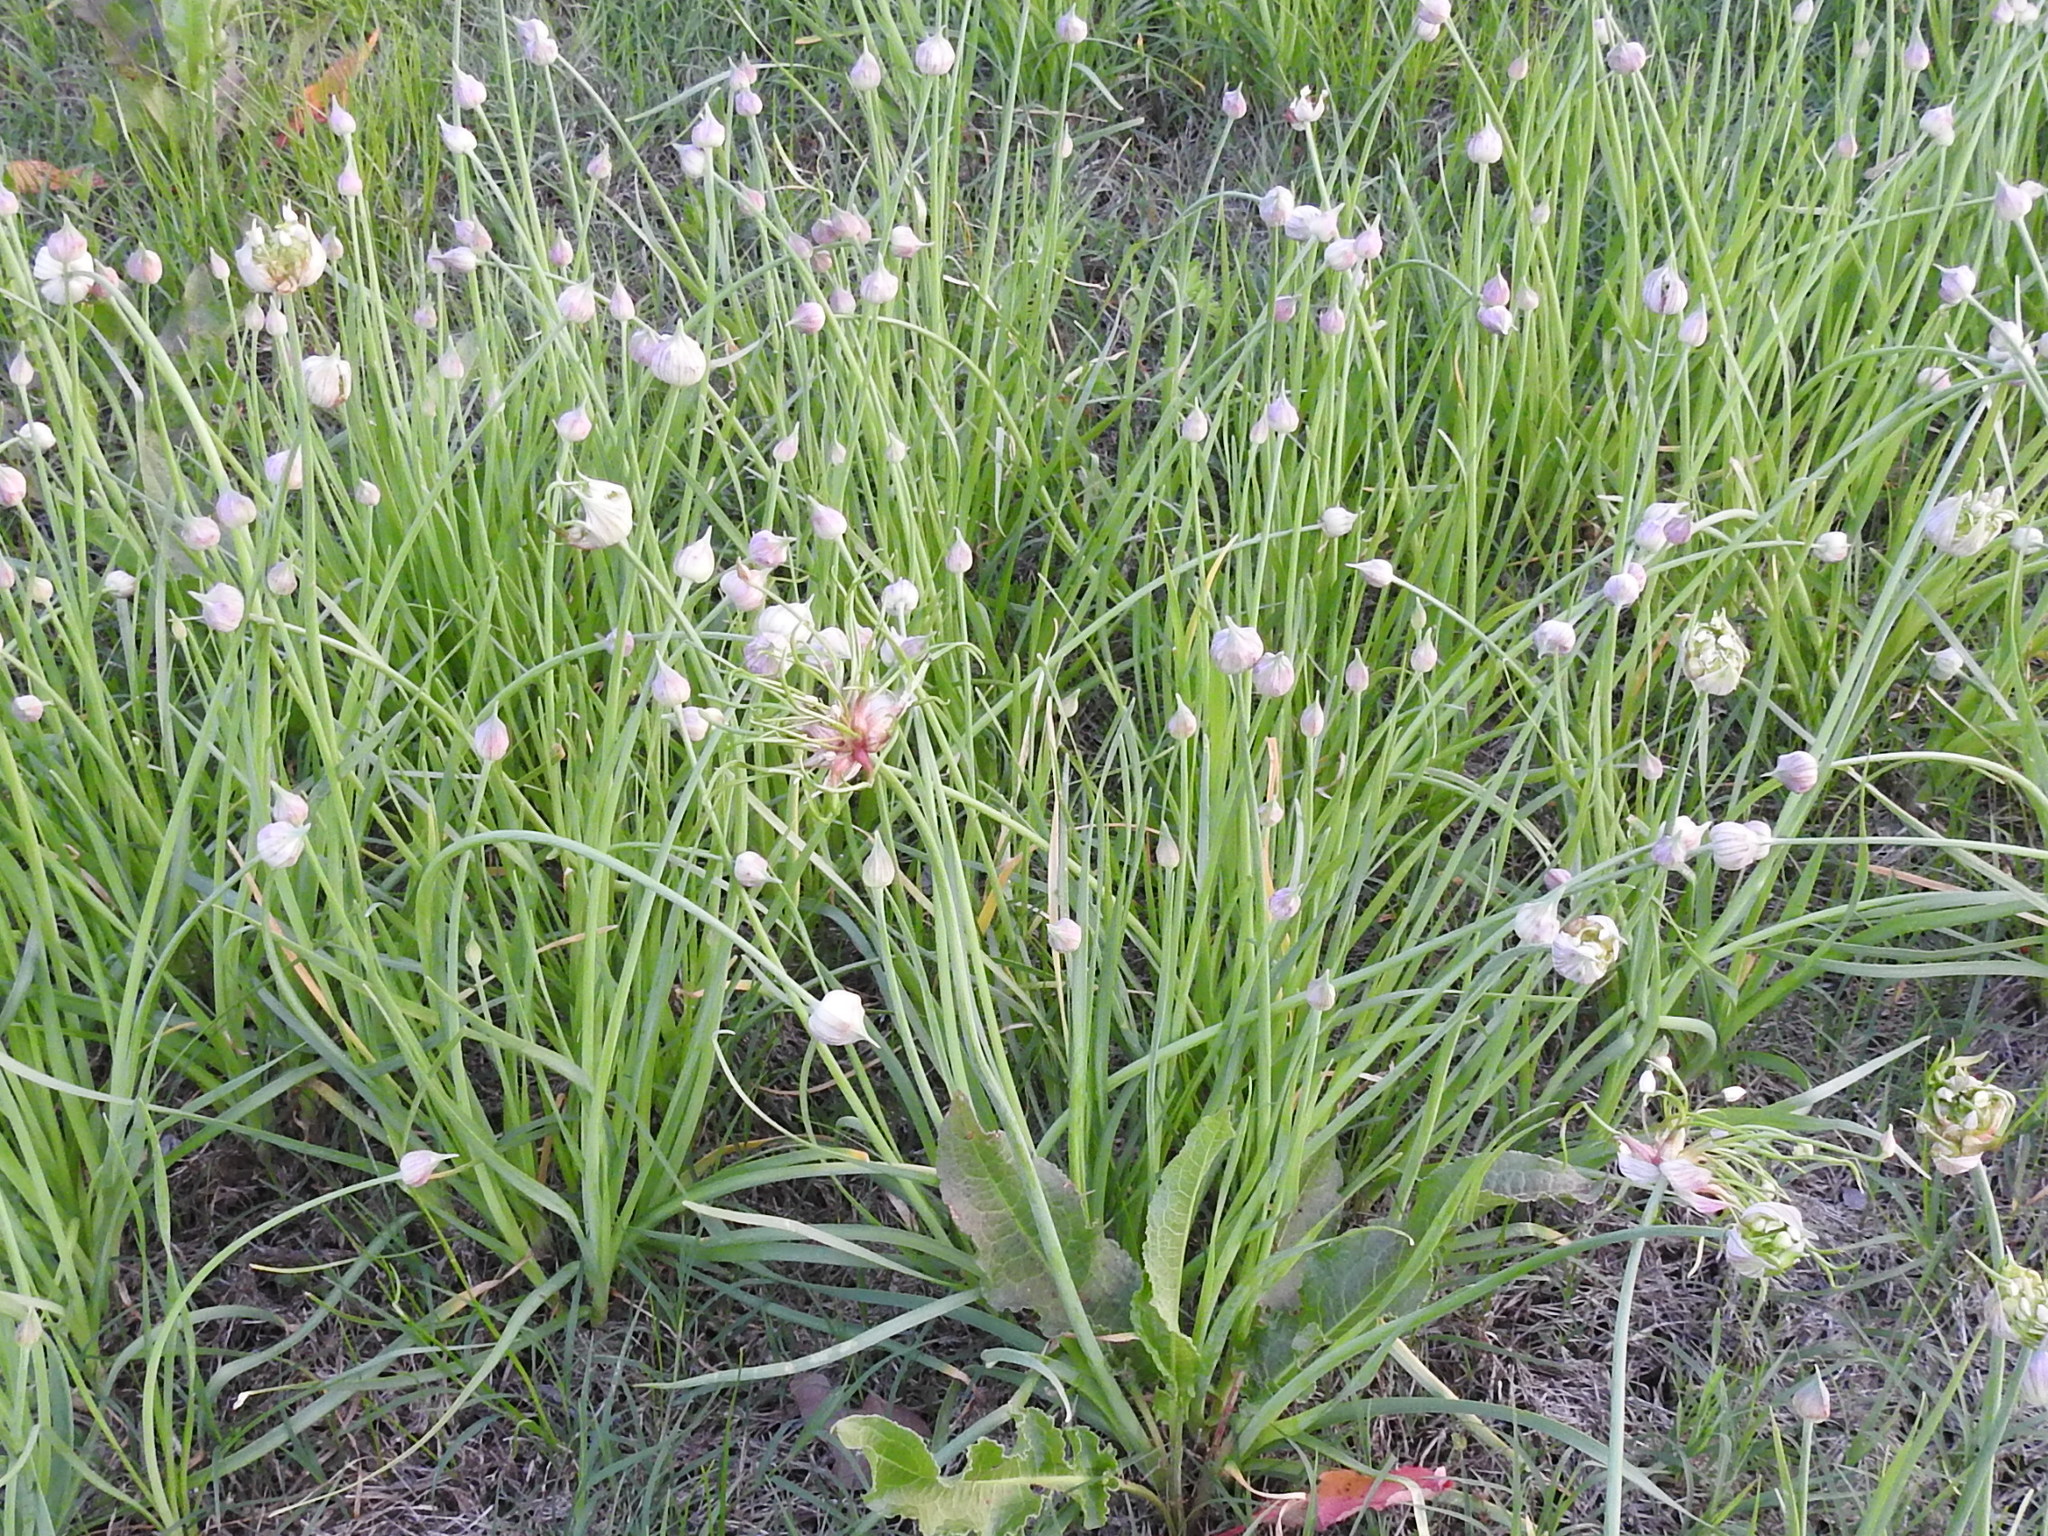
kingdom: Plantae
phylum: Tracheophyta
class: Liliopsida
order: Asparagales
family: Amaryllidaceae
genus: Allium
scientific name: Allium canadense
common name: Meadow garlic
